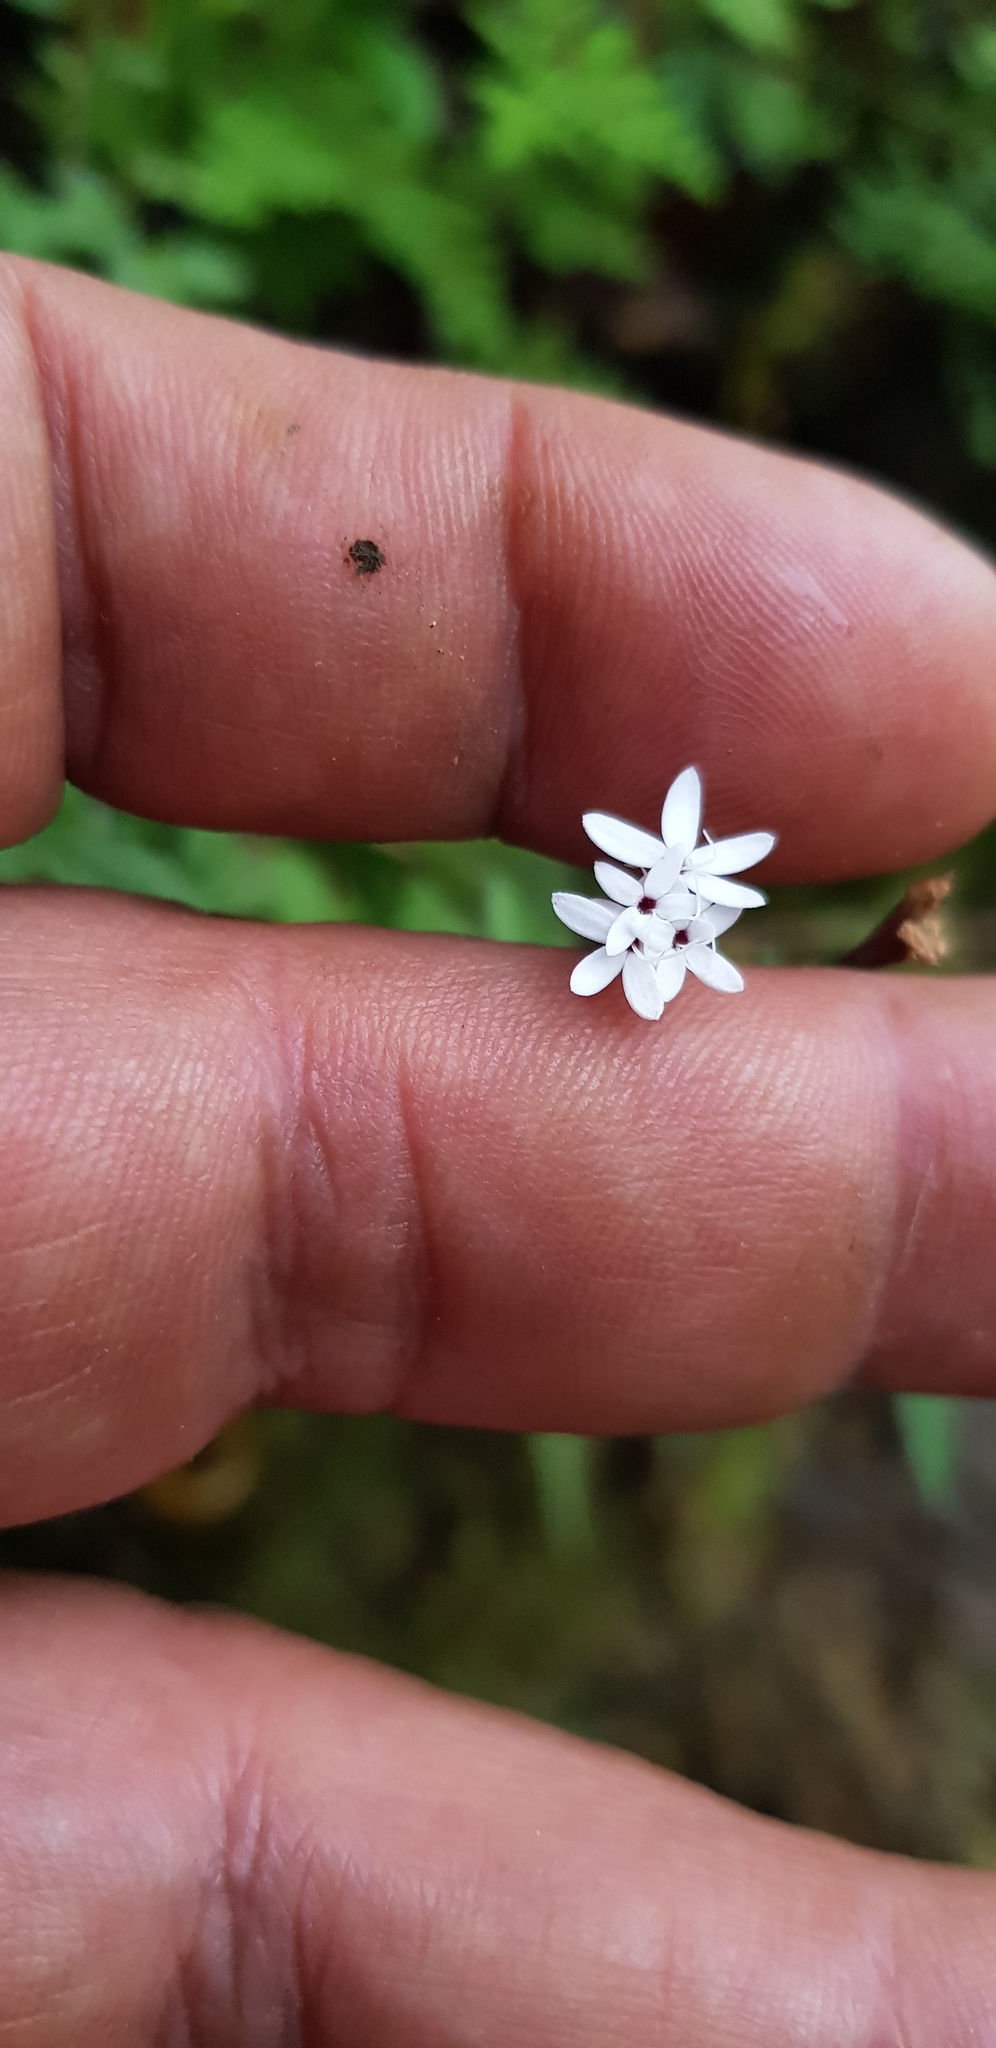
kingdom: Plantae
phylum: Tracheophyta
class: Magnoliopsida
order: Asterales
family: Asteraceae
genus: Stevia
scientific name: Stevia elatior
